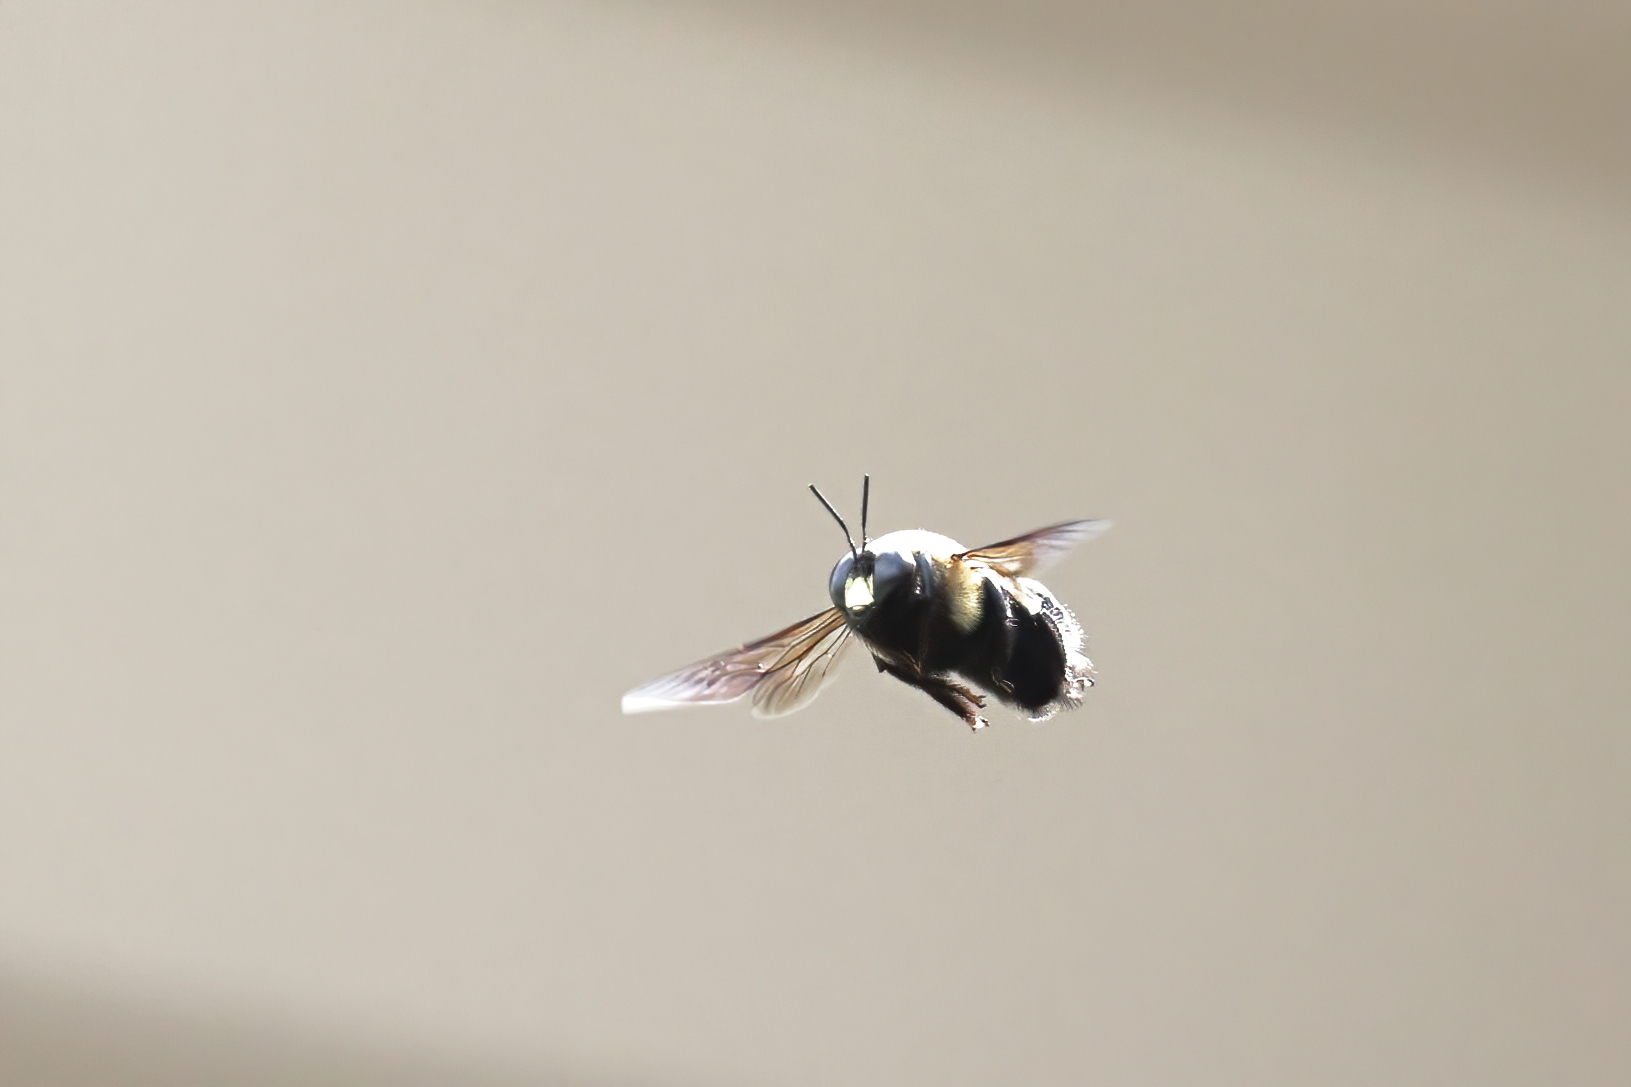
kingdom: Animalia
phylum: Arthropoda
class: Insecta
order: Hymenoptera
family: Apidae
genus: Xylocopa
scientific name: Xylocopa virginica
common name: Carpenter bee
